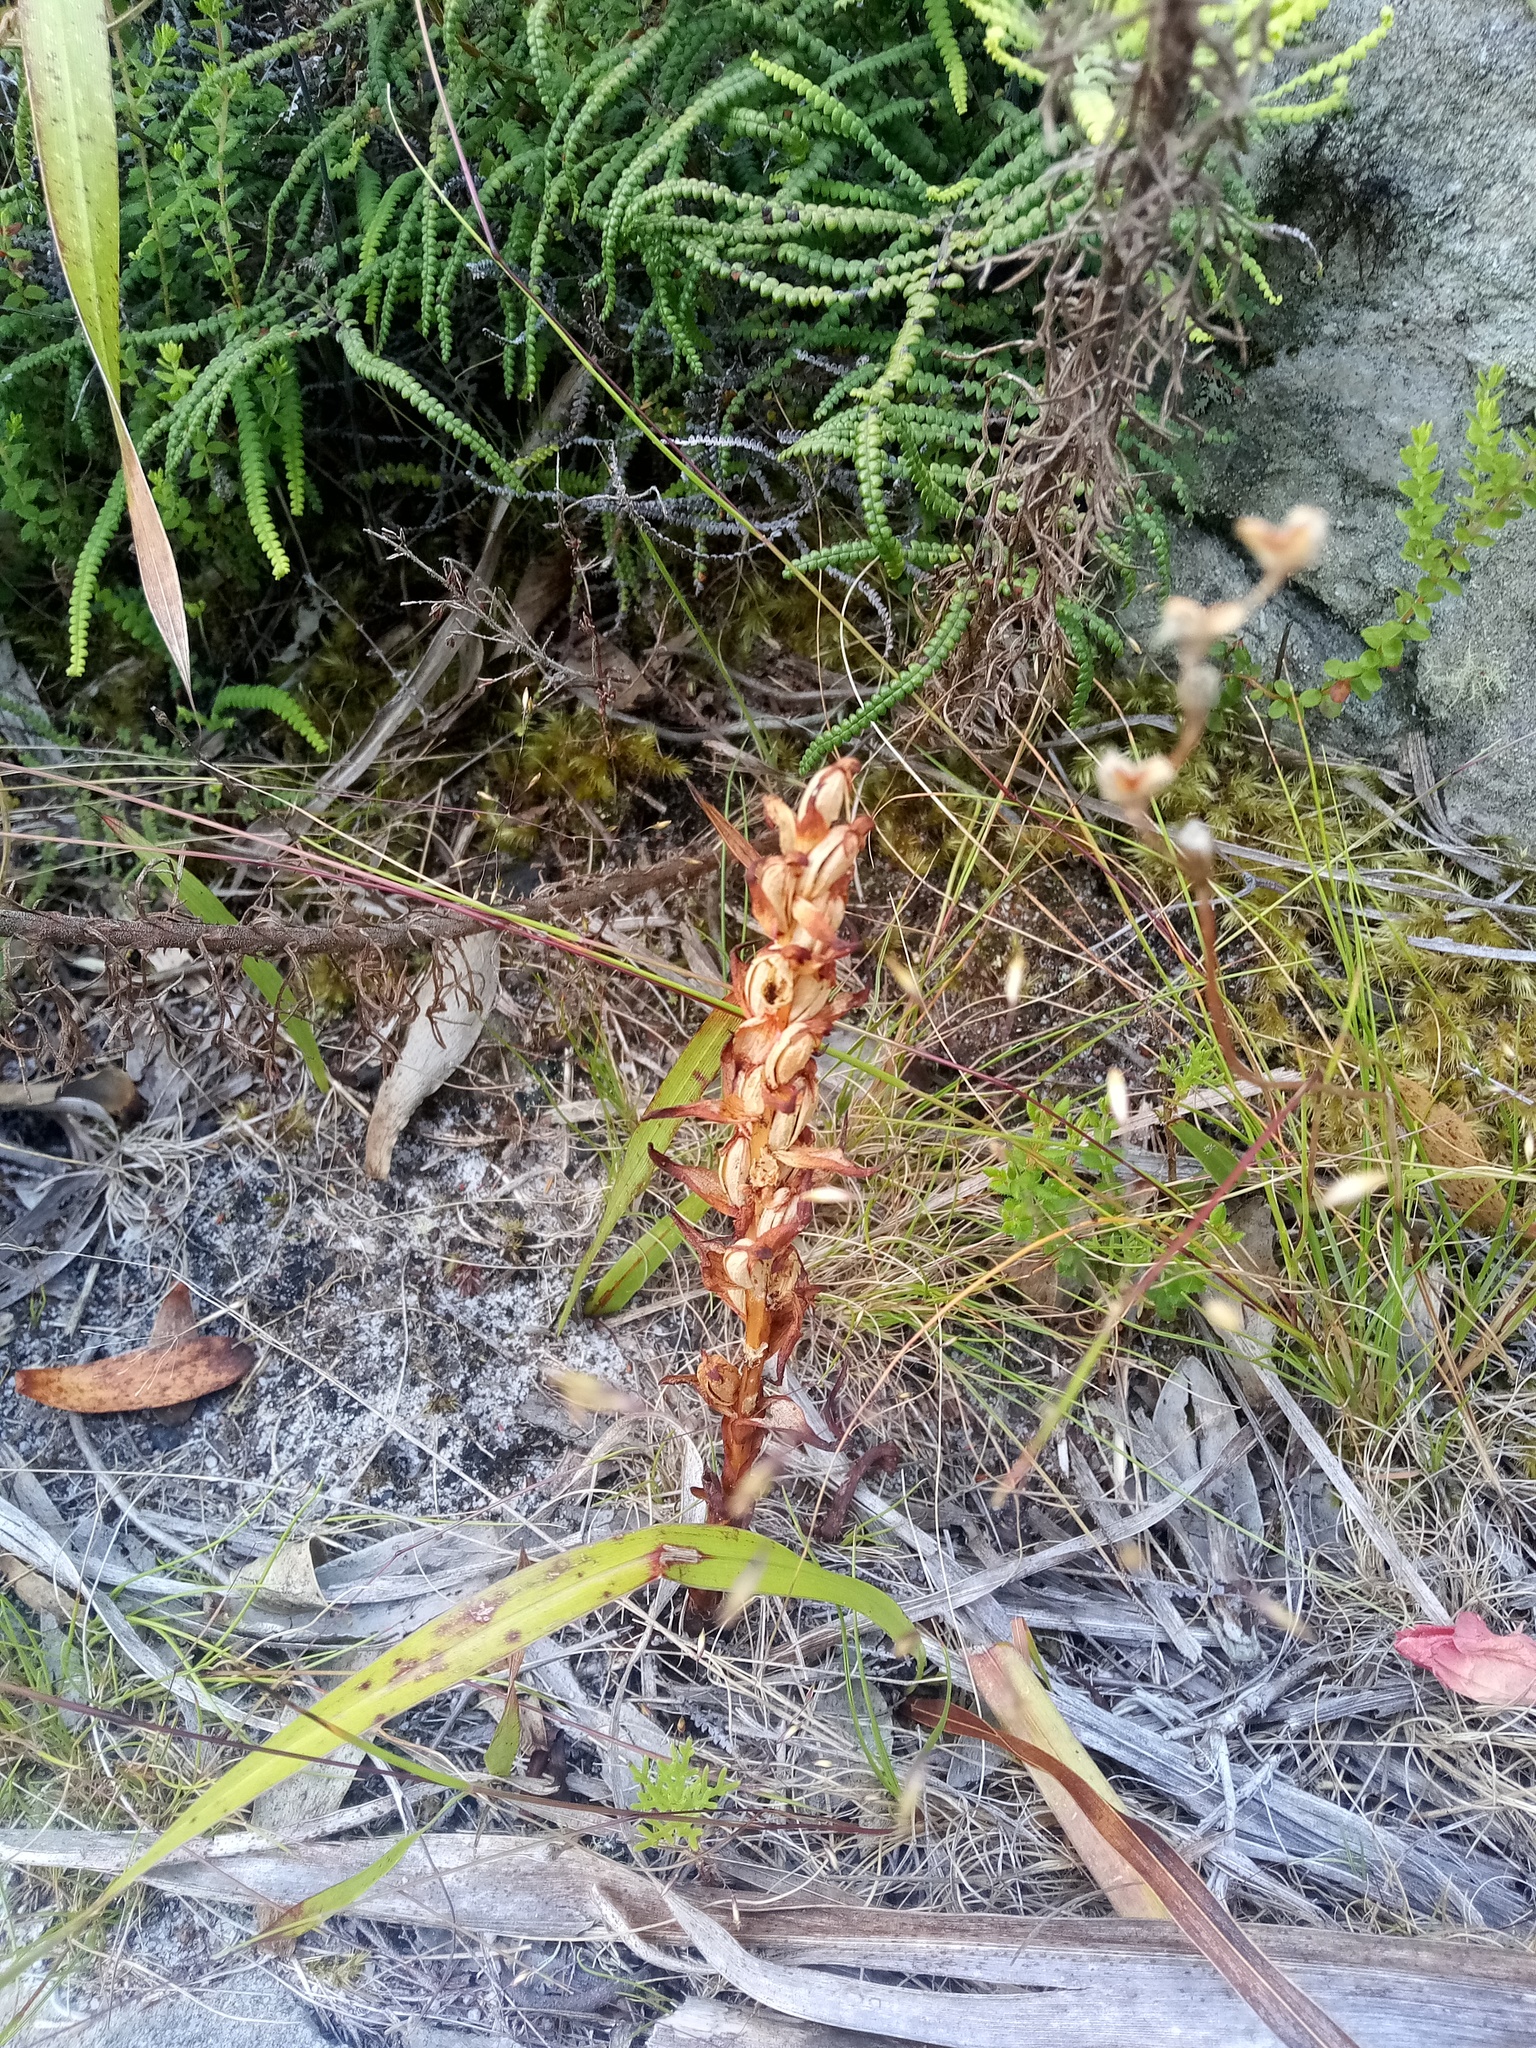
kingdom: Plantae
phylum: Tracheophyta
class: Liliopsida
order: Asparagales
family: Orchidaceae
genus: Disa
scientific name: Disa bracteata
